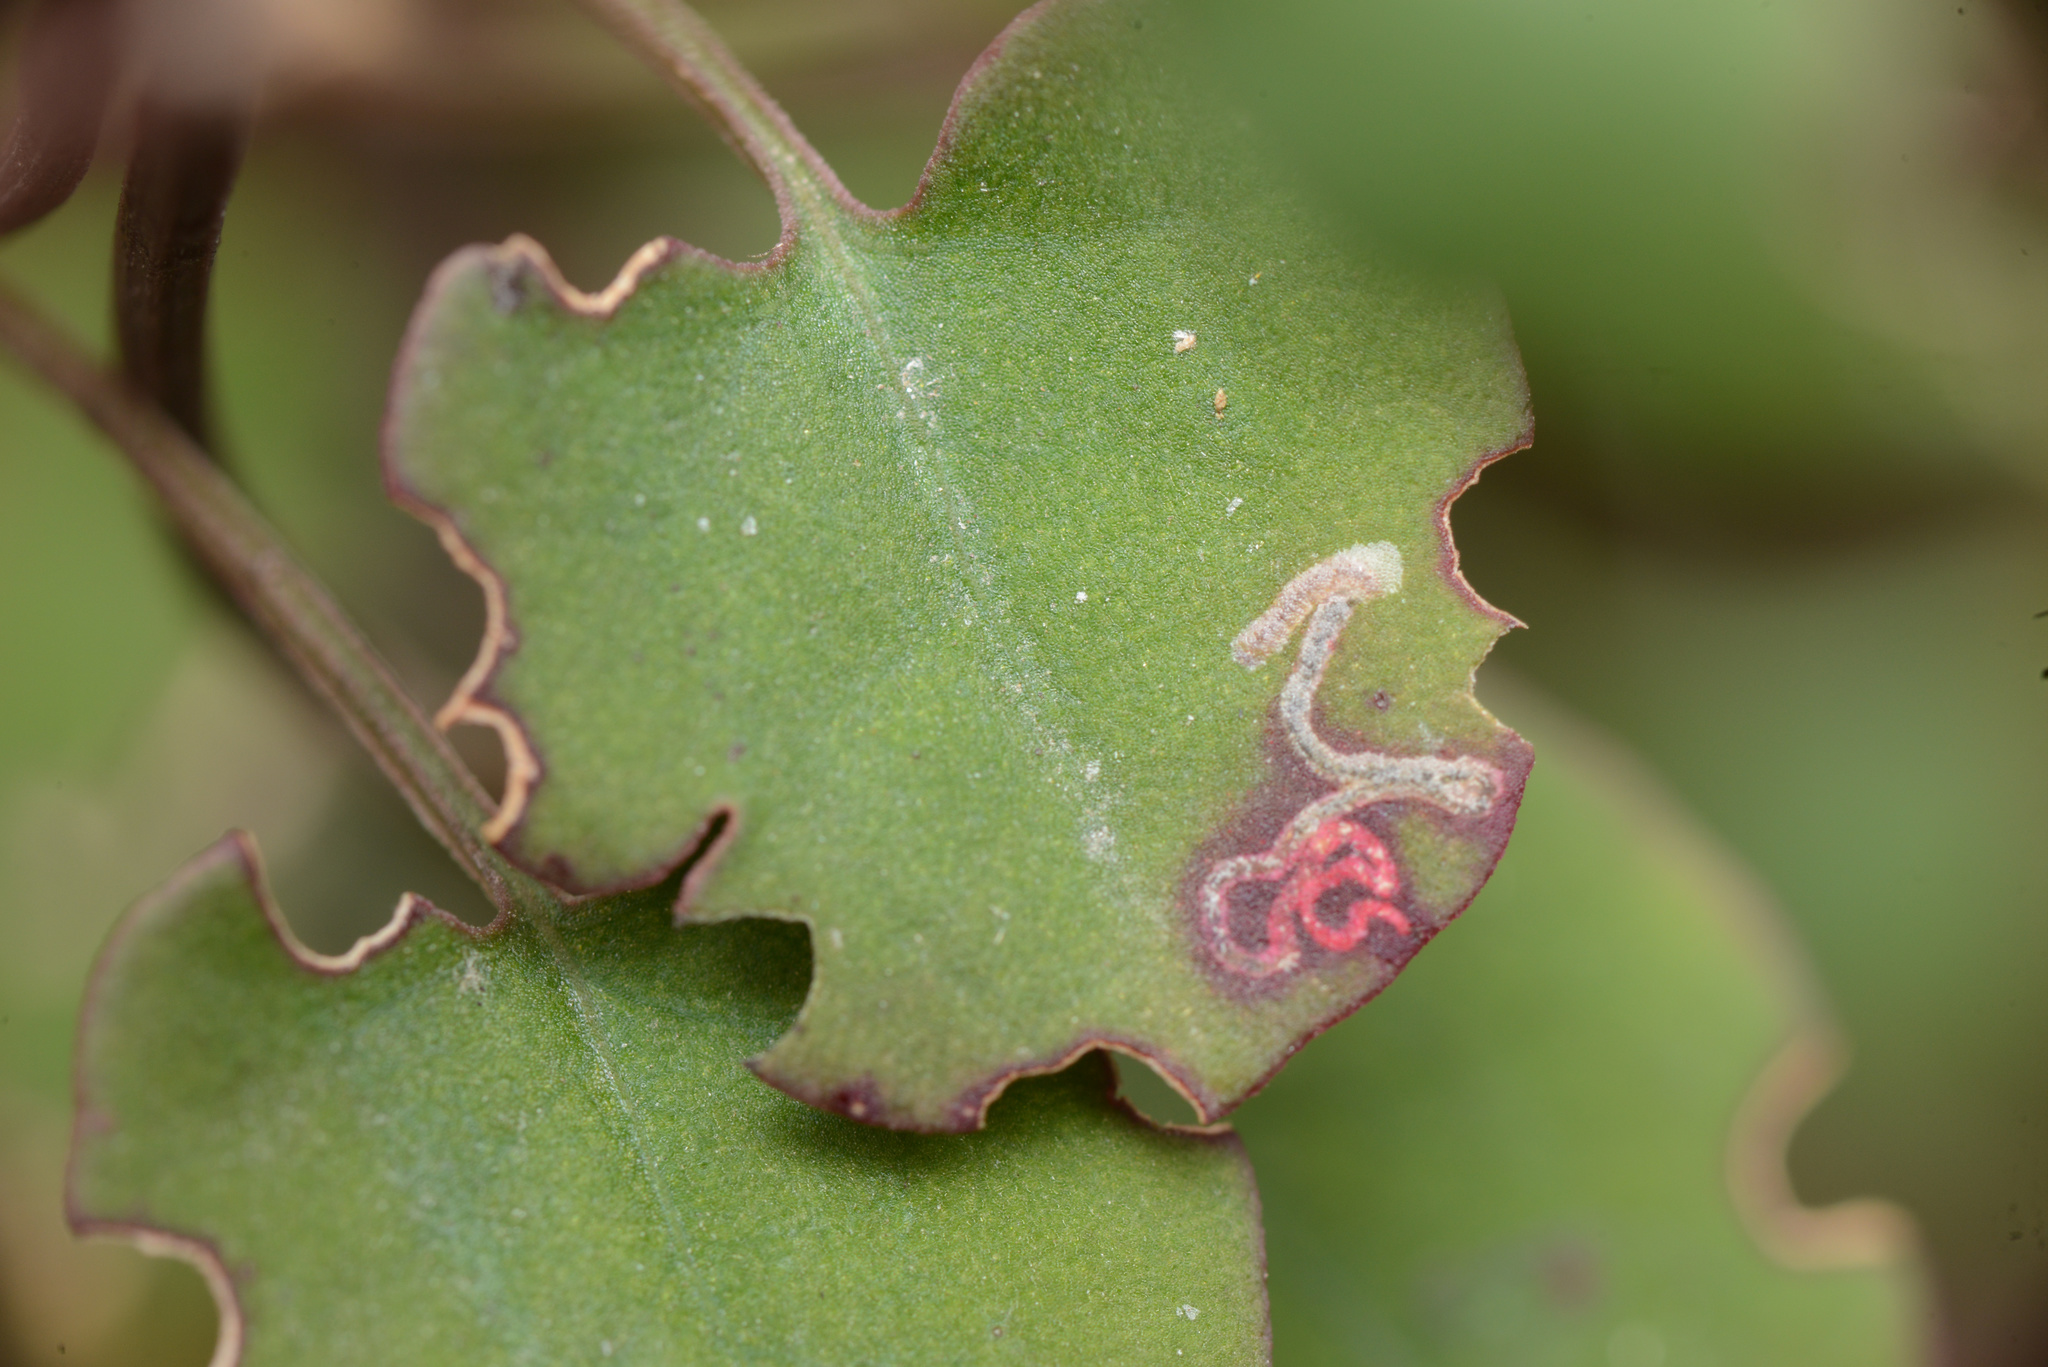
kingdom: Animalia
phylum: Arthropoda
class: Insecta
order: Lepidoptera
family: Momphidae
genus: Zapyrastra
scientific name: Zapyrastra calliphana
